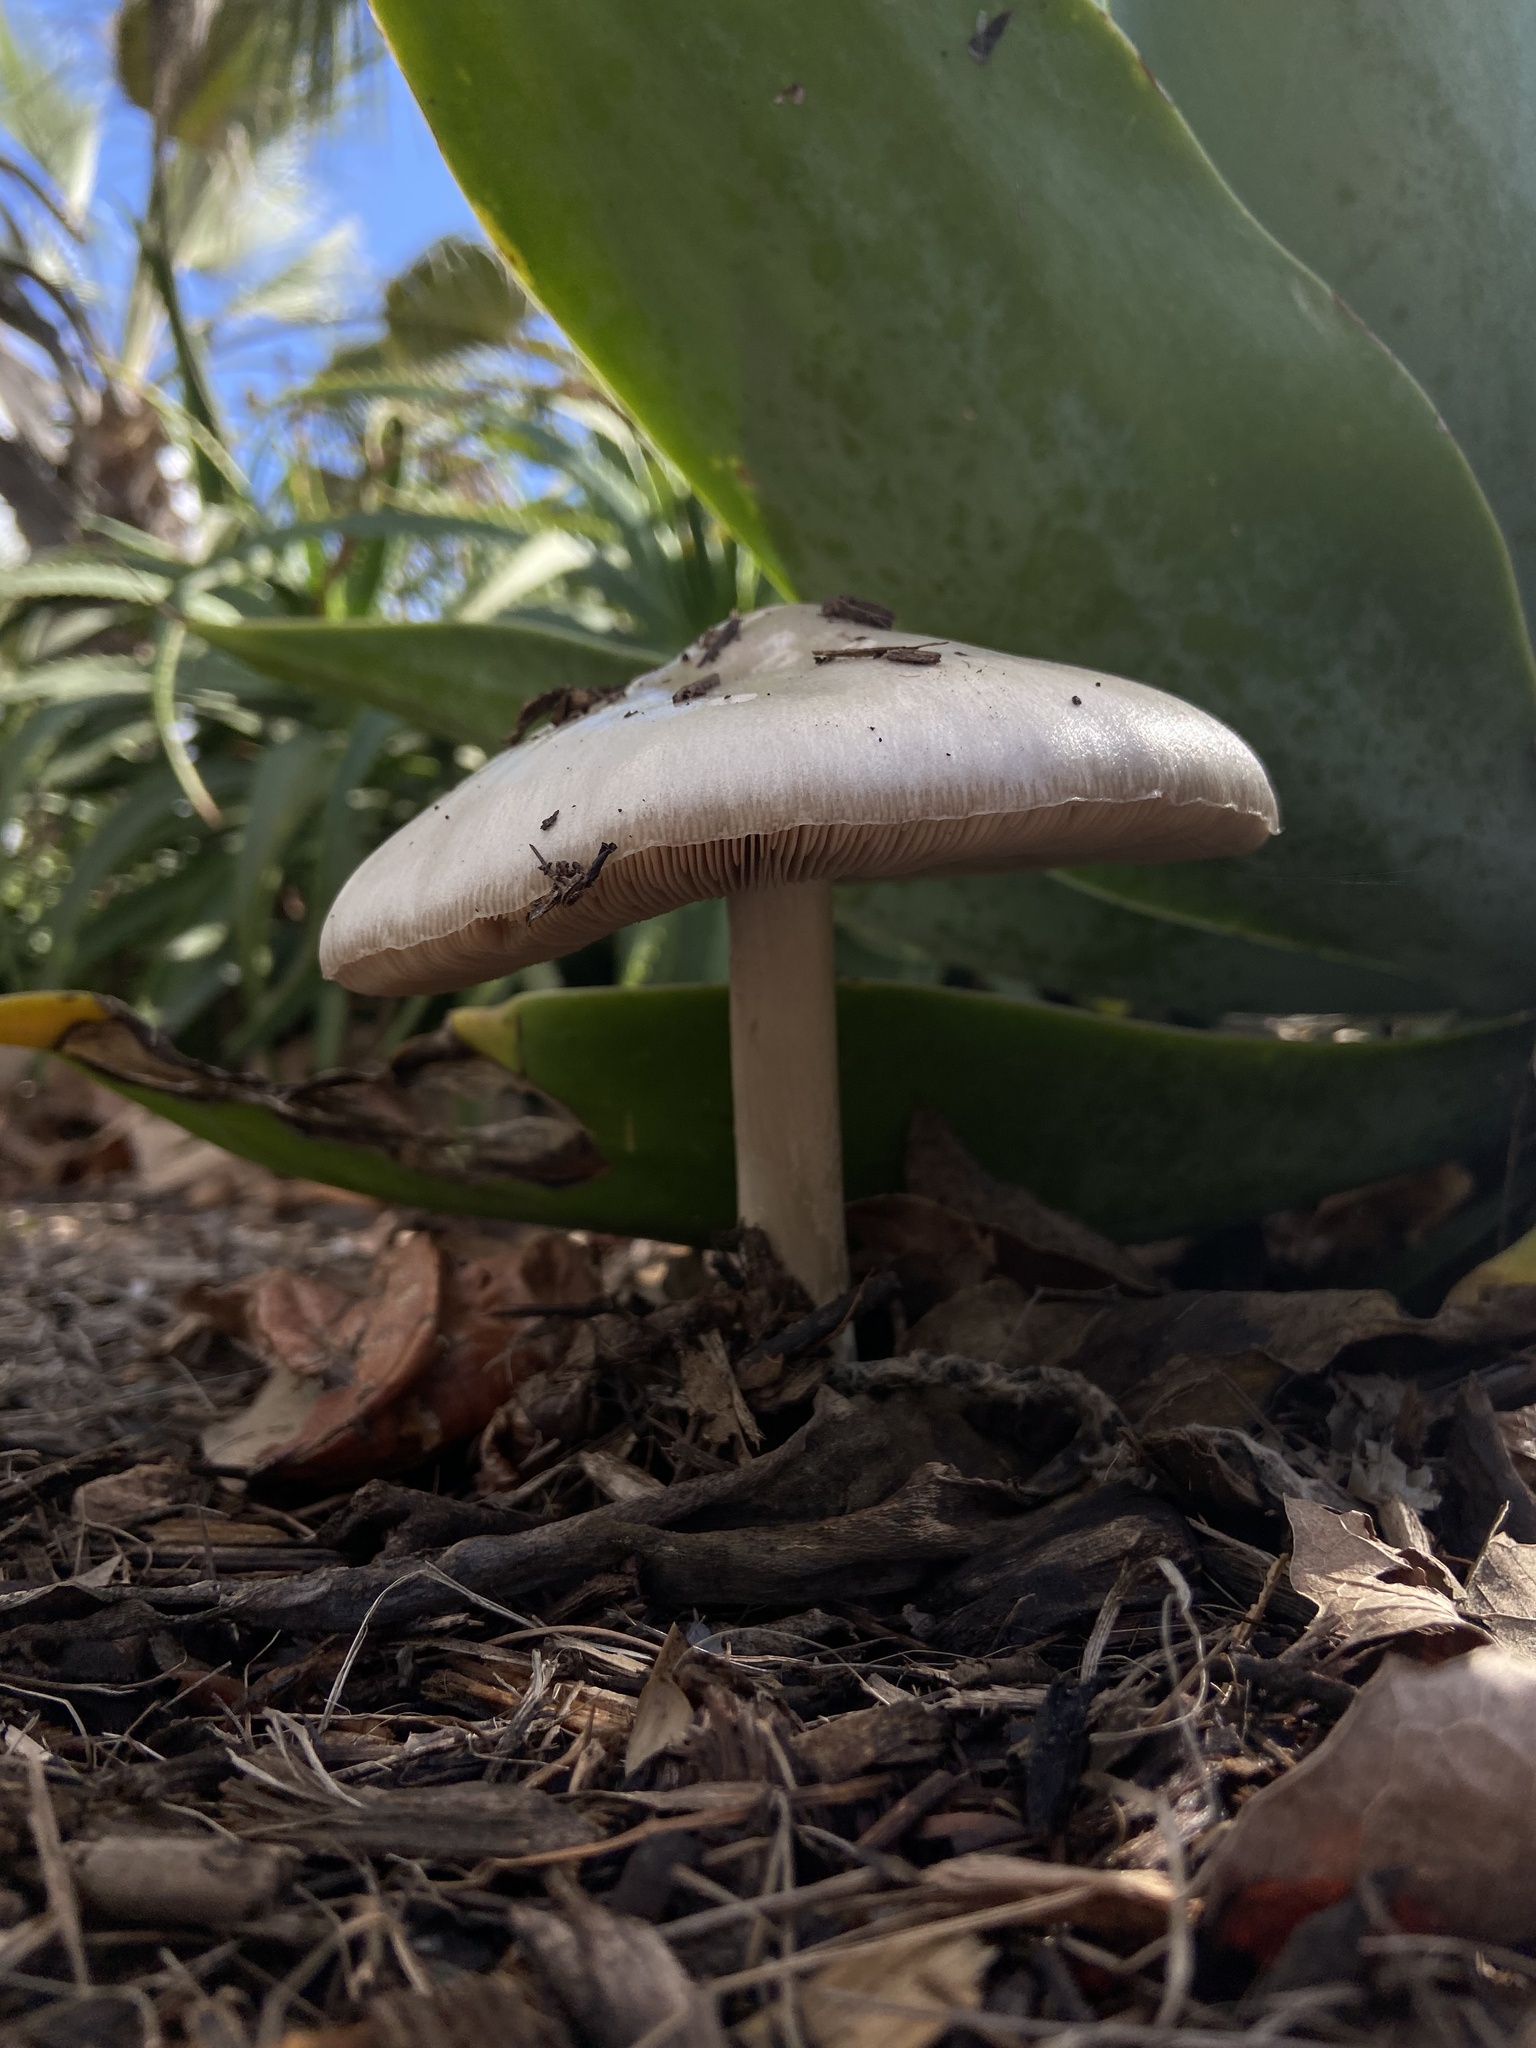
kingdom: Fungi
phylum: Basidiomycota
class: Agaricomycetes
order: Agaricales
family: Pluteaceae
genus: Volvopluteus
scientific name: Volvopluteus gloiocephalus
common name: Stubble rosegill
